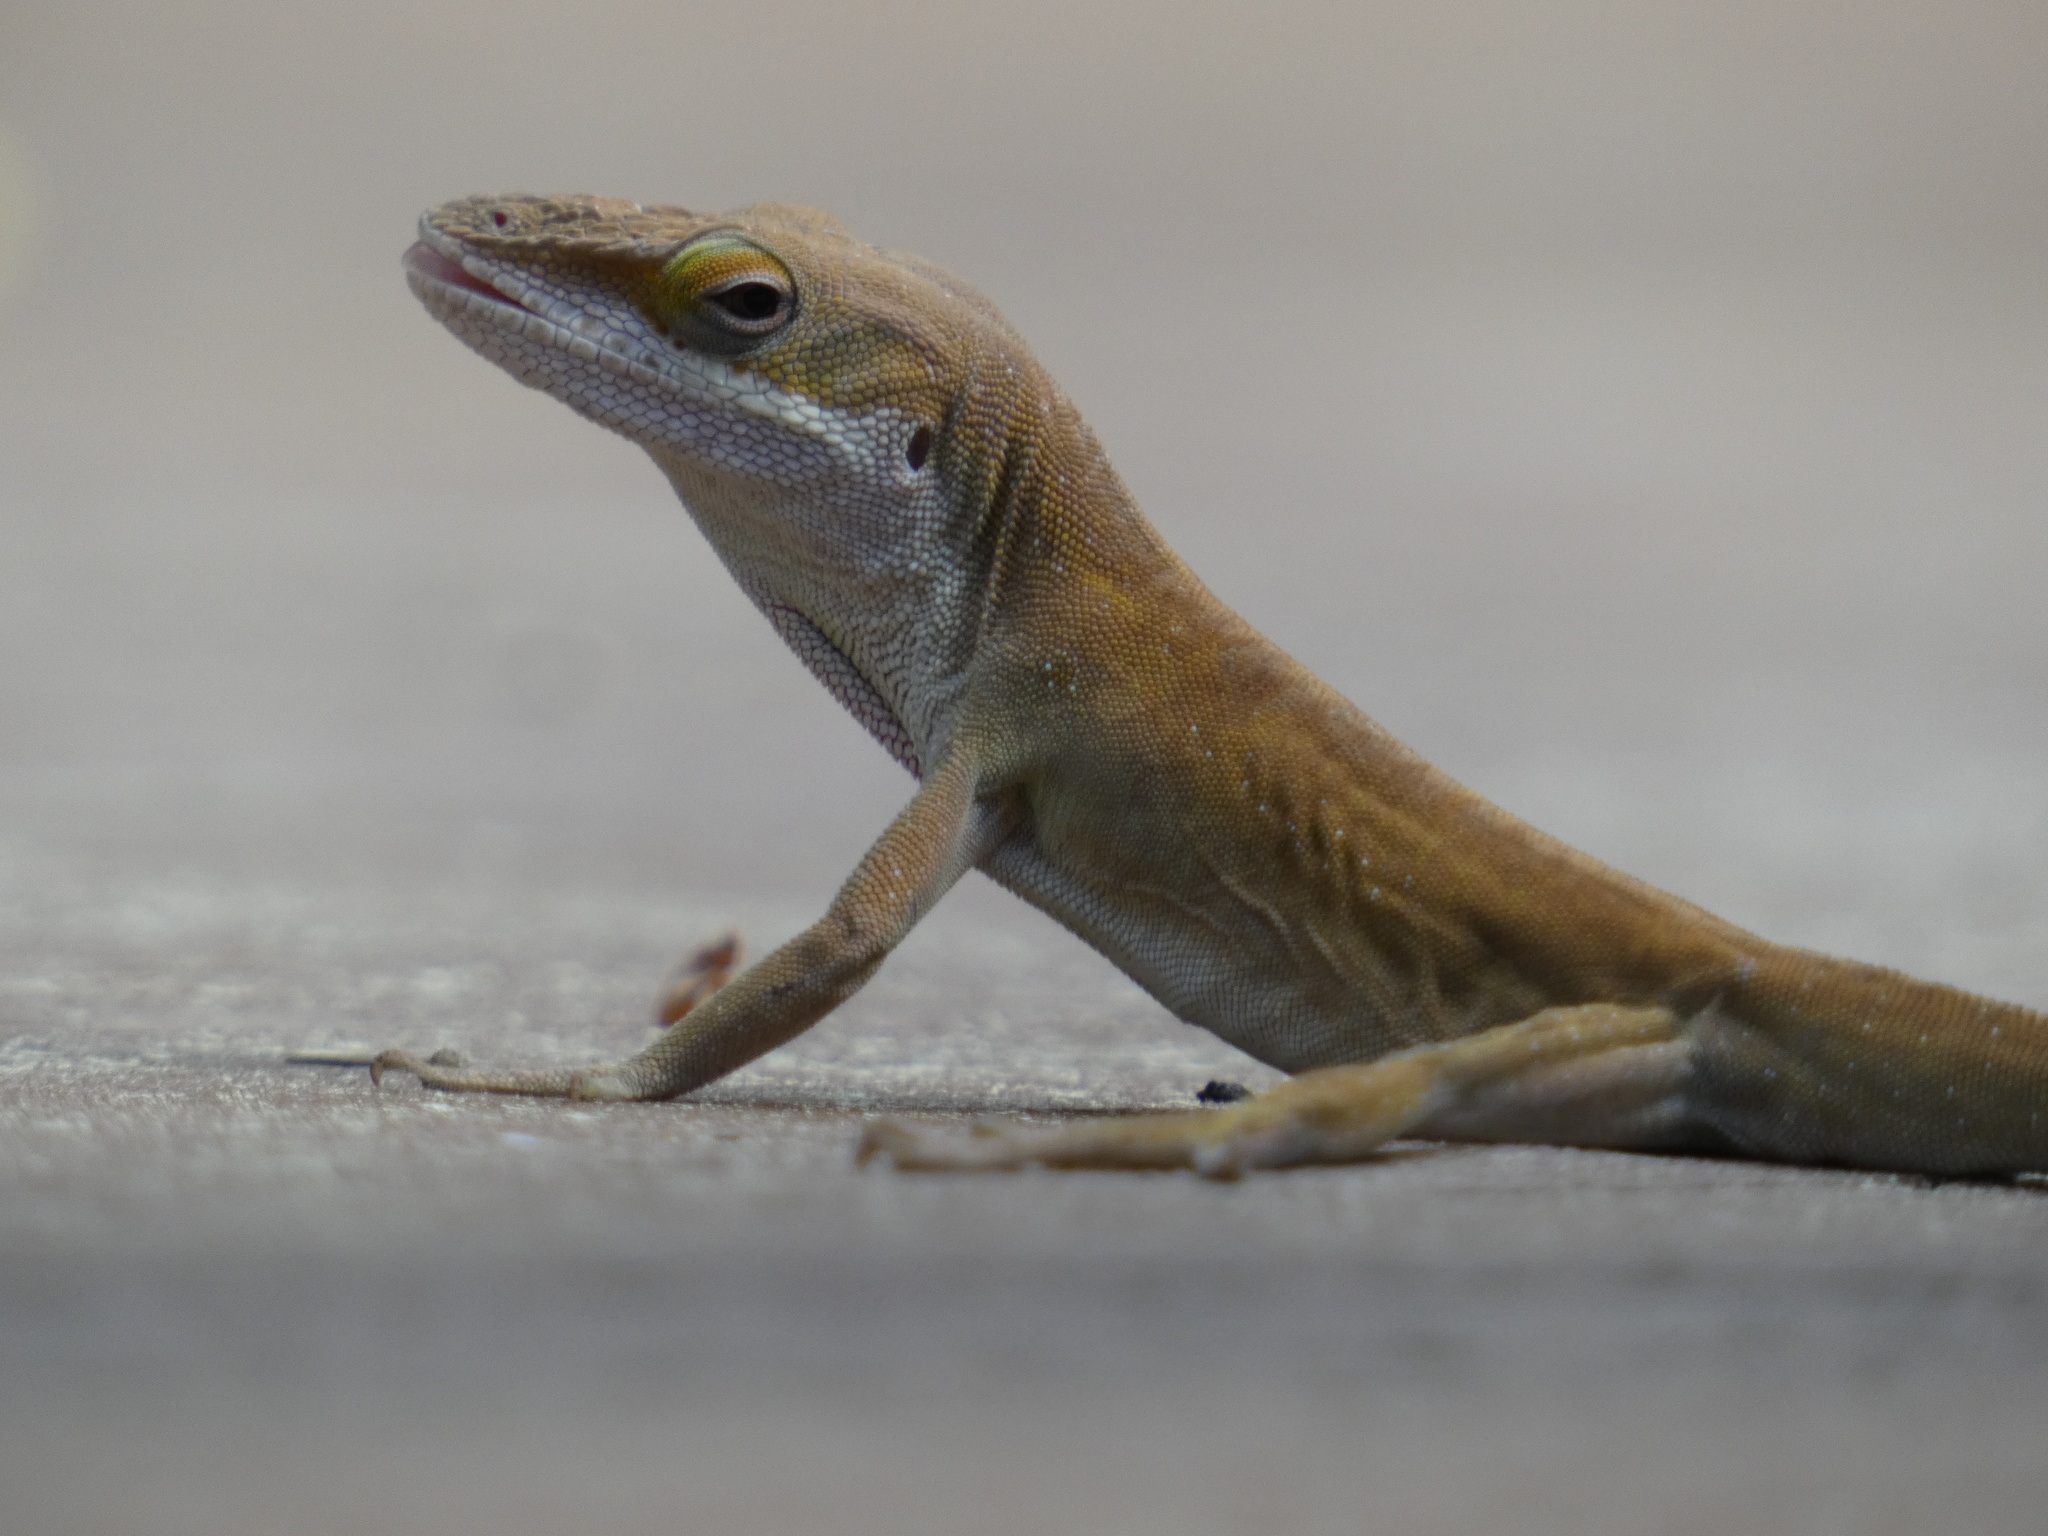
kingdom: Animalia
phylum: Chordata
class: Squamata
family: Dactyloidae
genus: Anolis
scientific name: Anolis carolinensis
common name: Green anole
